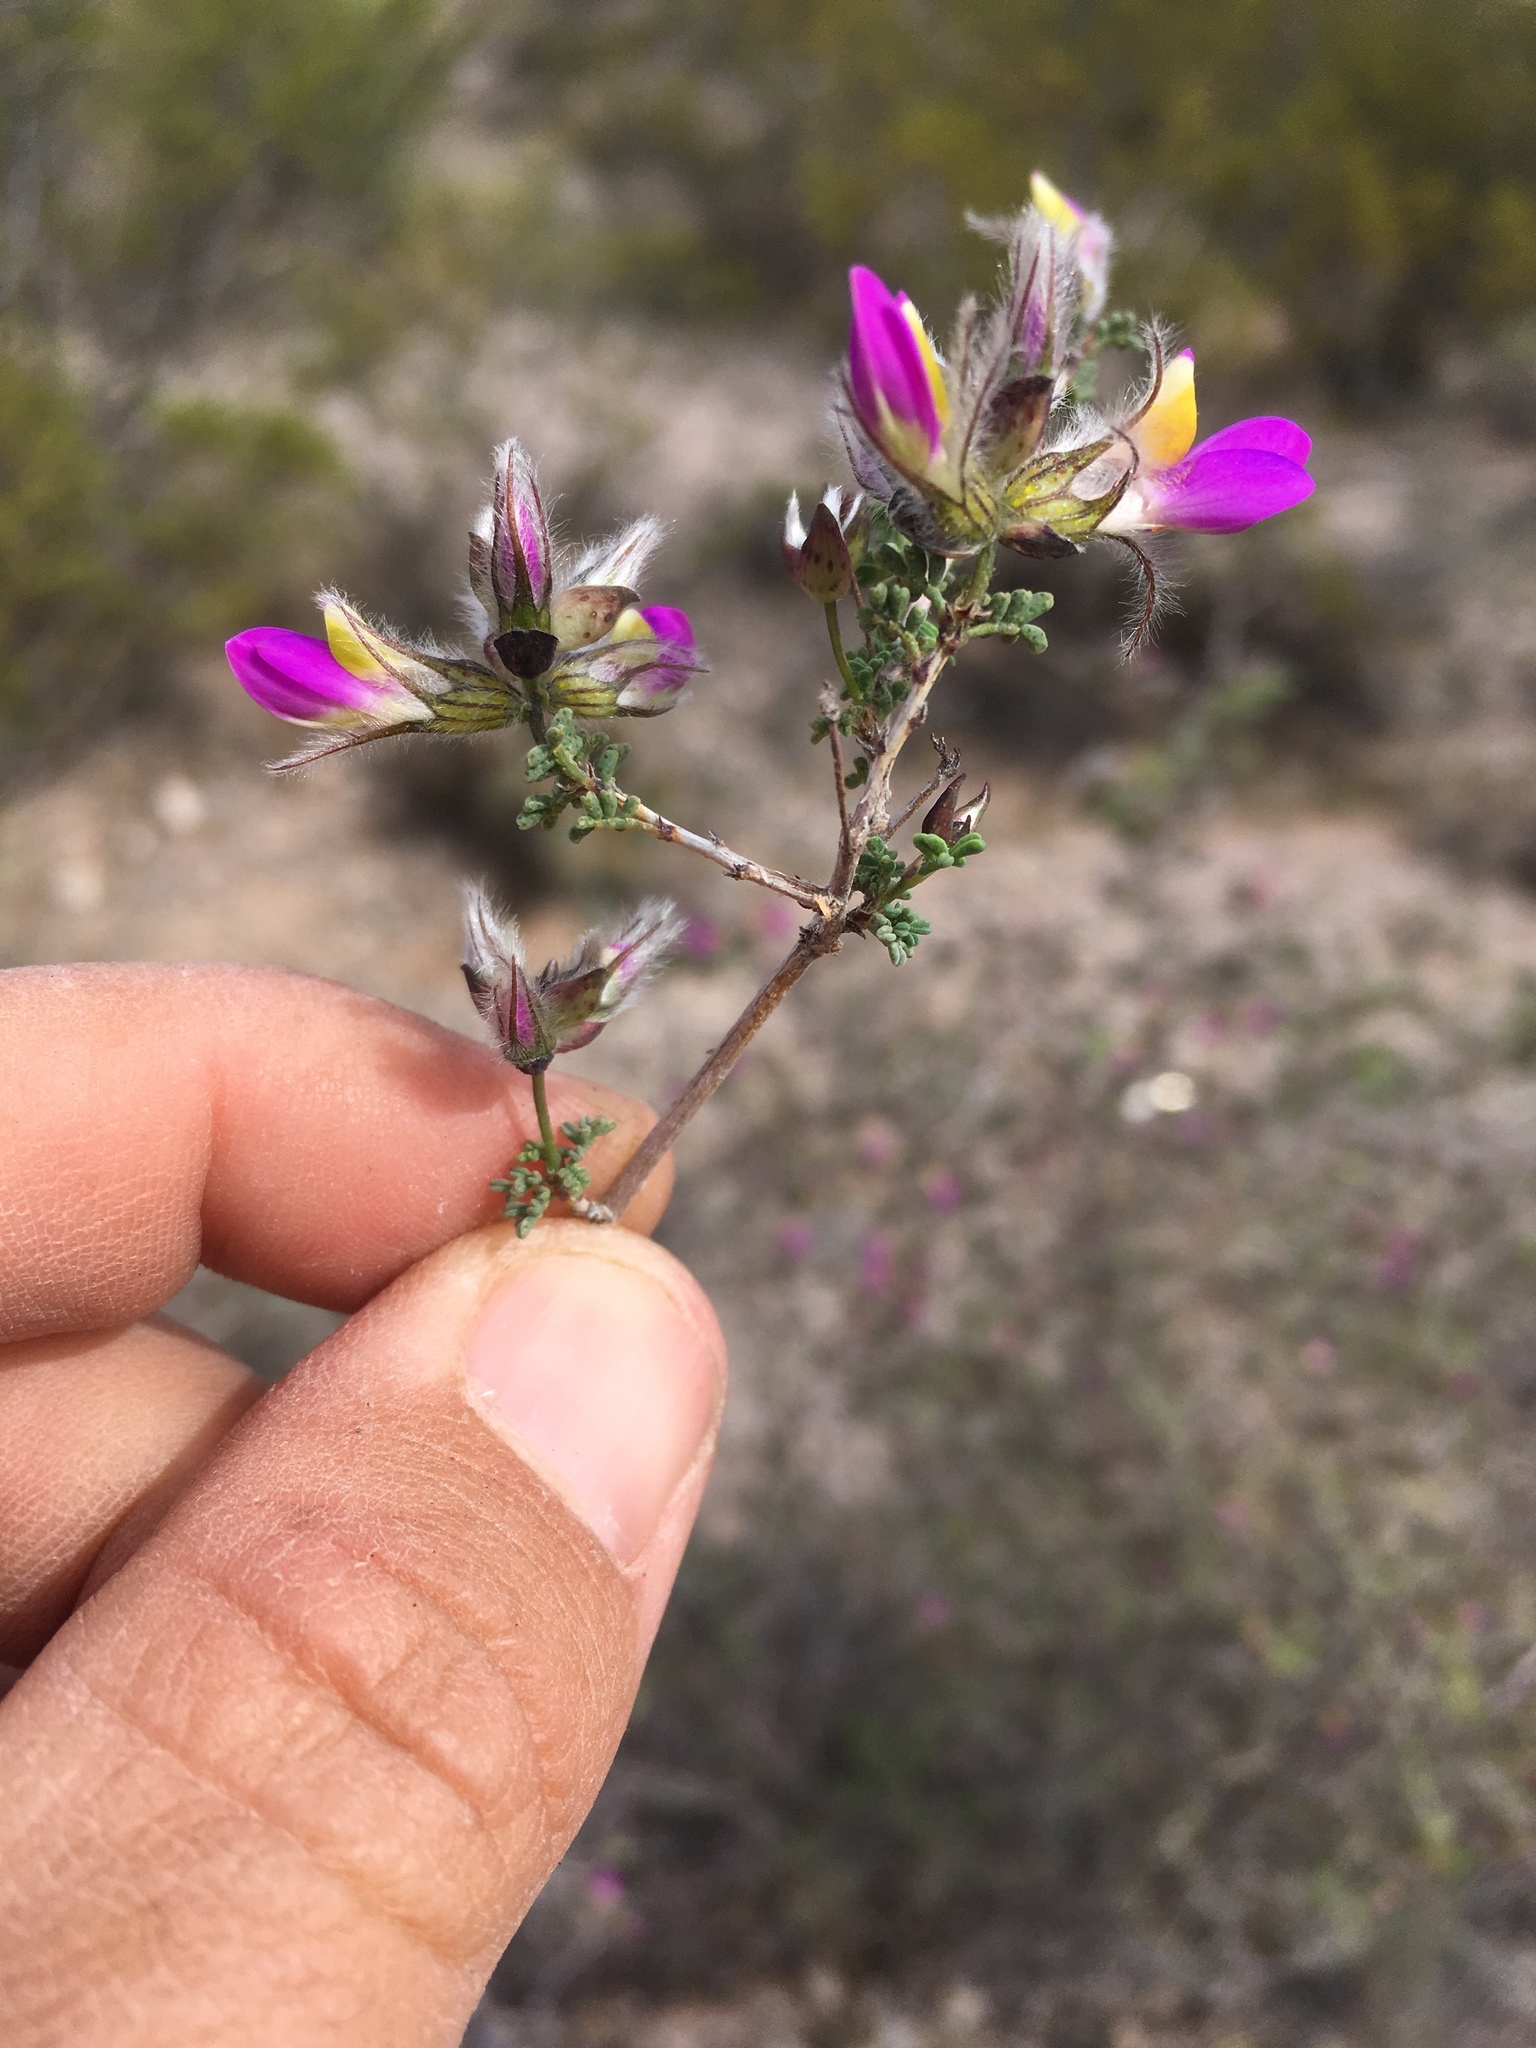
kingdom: Plantae
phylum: Tracheophyta
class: Magnoliopsida
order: Fabales
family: Fabaceae
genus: Dalea
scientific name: Dalea formosa
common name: Feather-plume dalea
